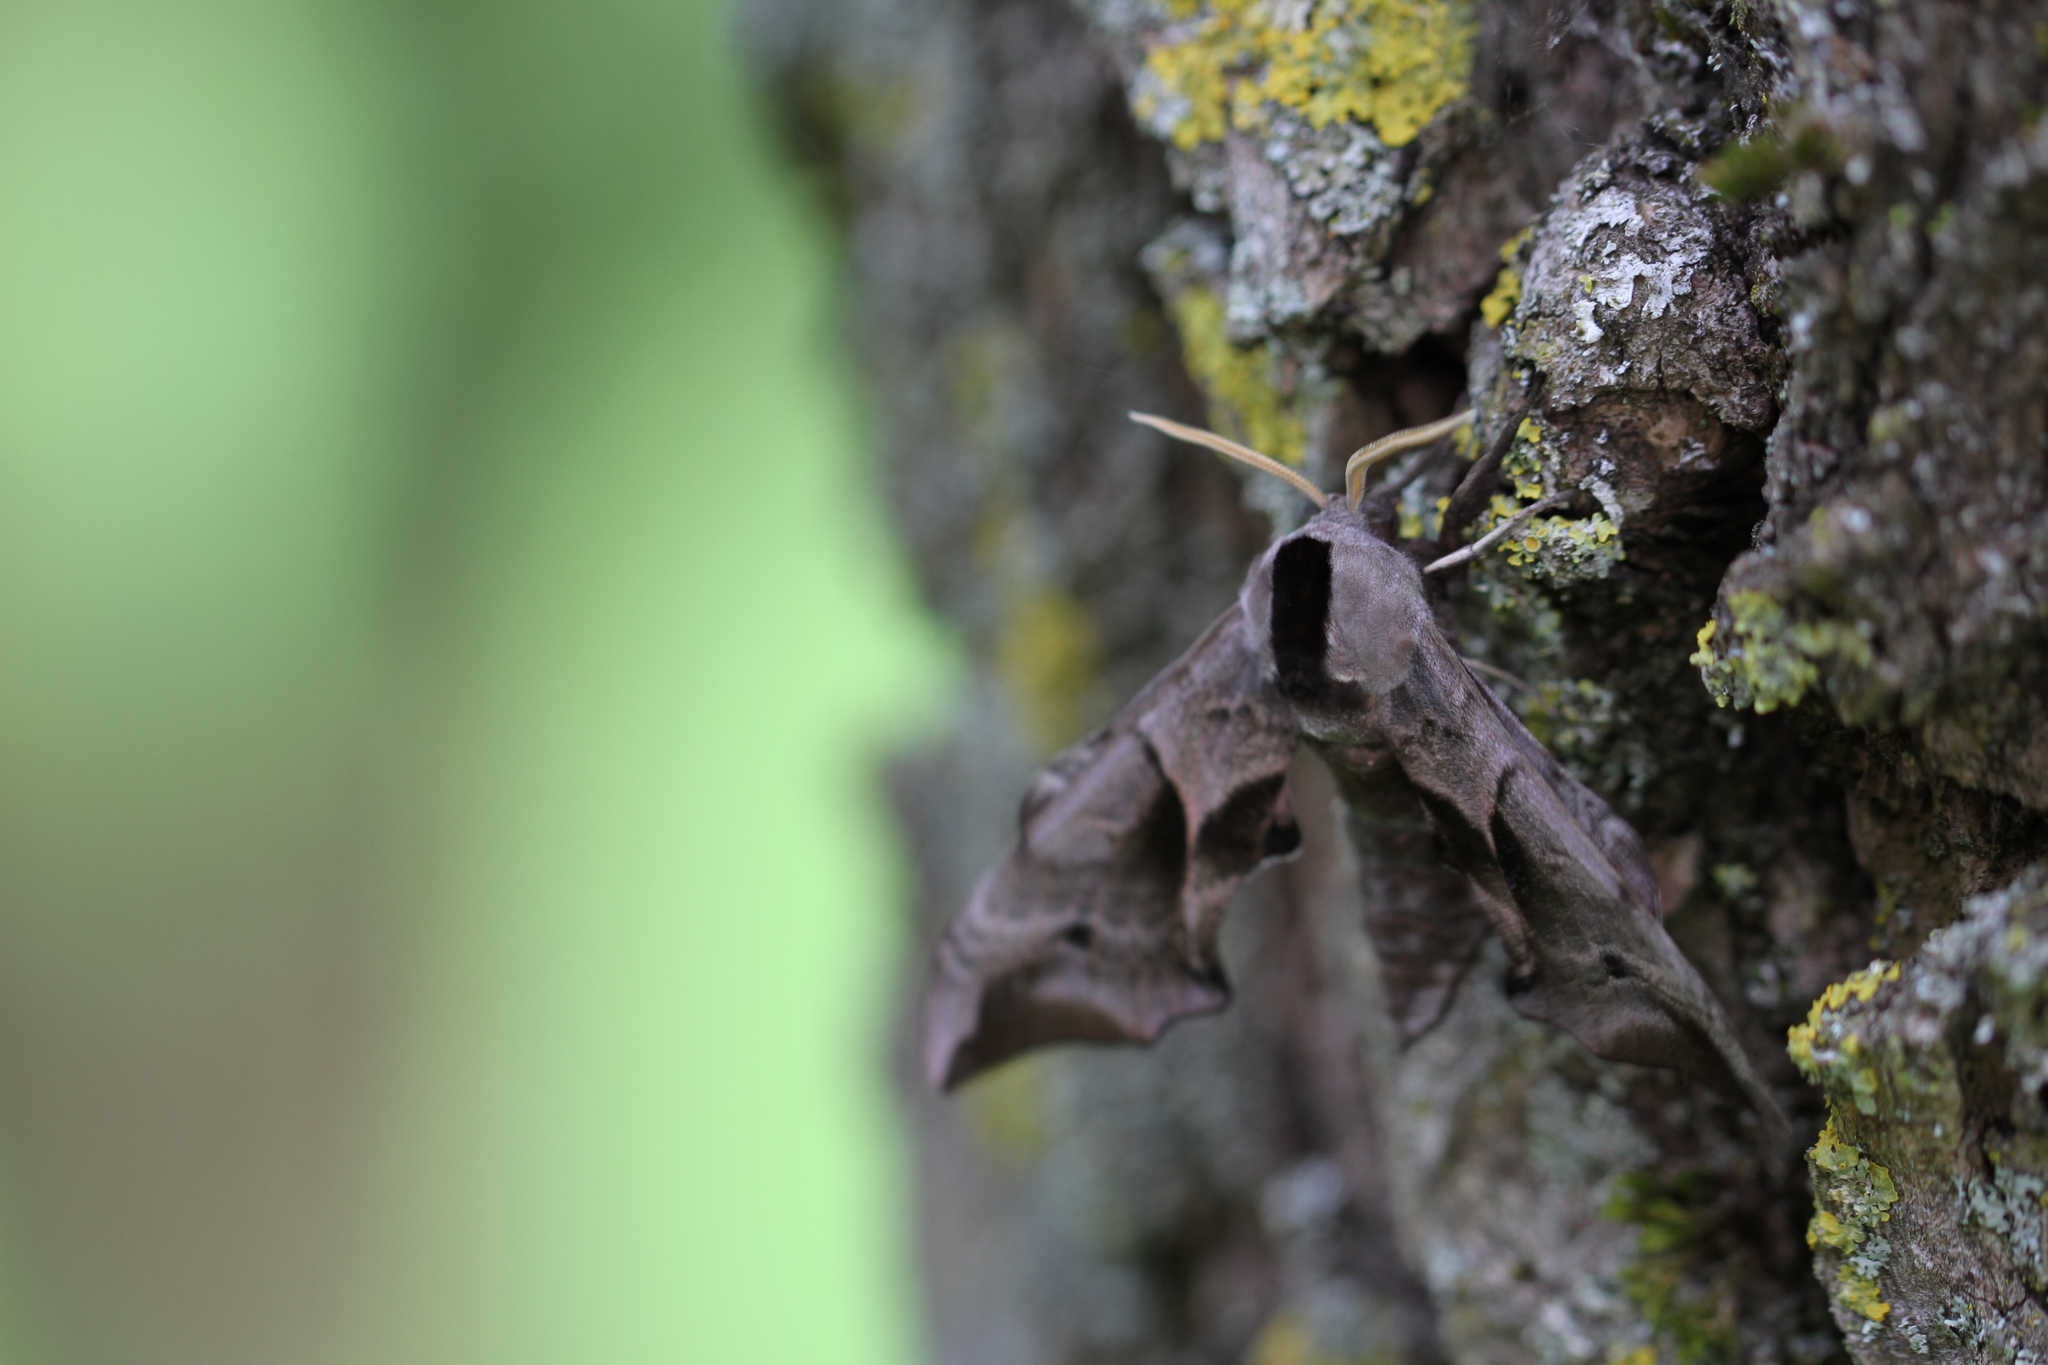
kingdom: Animalia
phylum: Arthropoda
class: Insecta
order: Lepidoptera
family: Sphingidae
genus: Smerinthus
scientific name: Smerinthus ocellata
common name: Eyed hawk-moth
